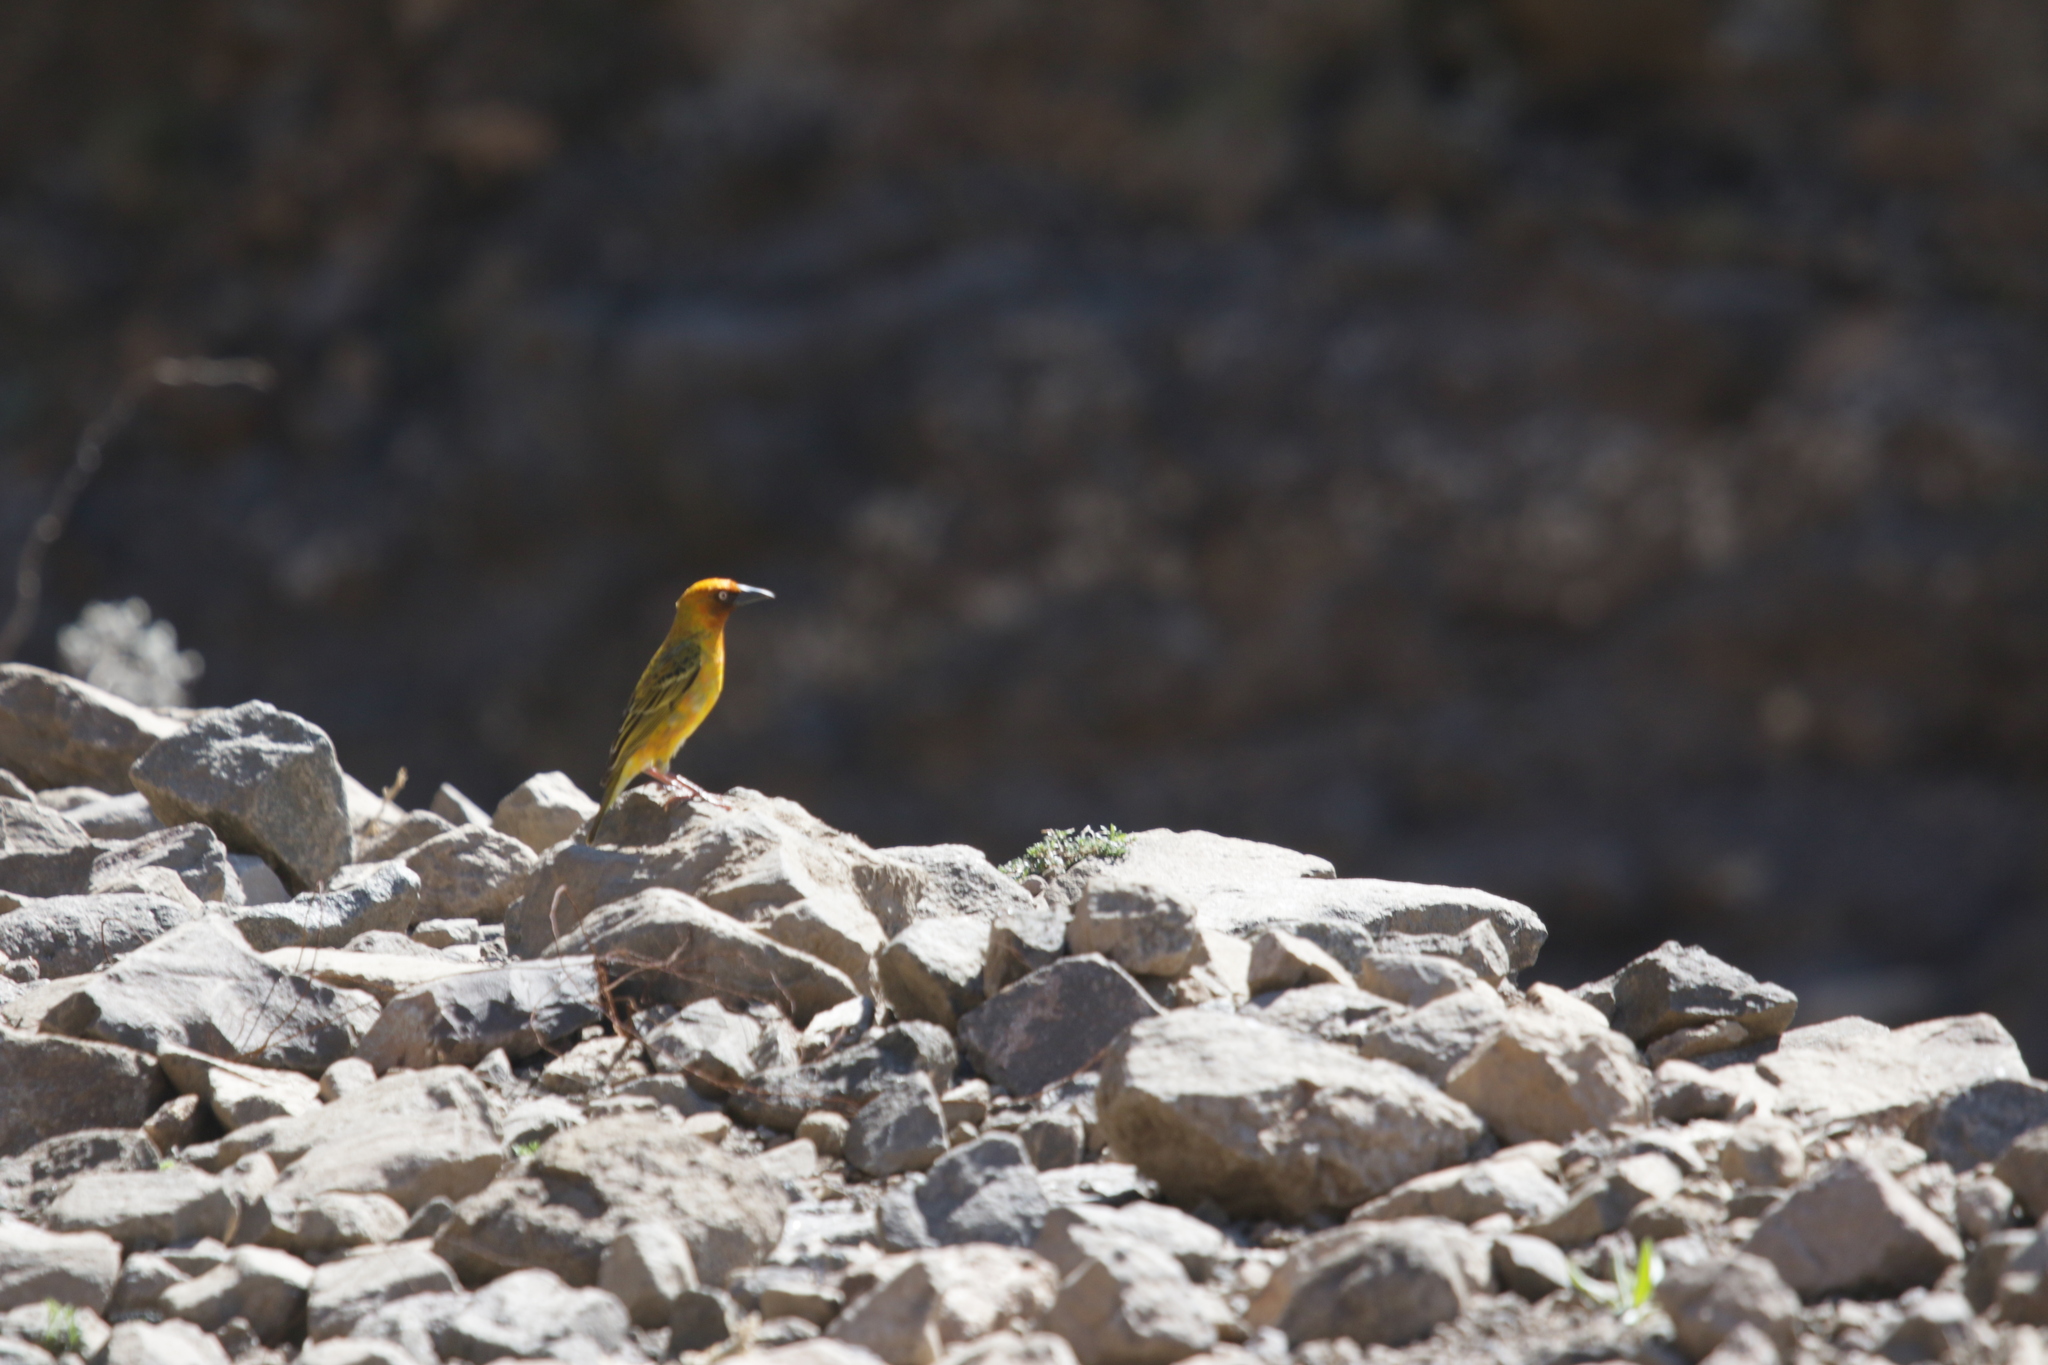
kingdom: Animalia
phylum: Chordata
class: Aves
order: Passeriformes
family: Ploceidae
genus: Ploceus
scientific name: Ploceus capensis
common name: Cape weaver
